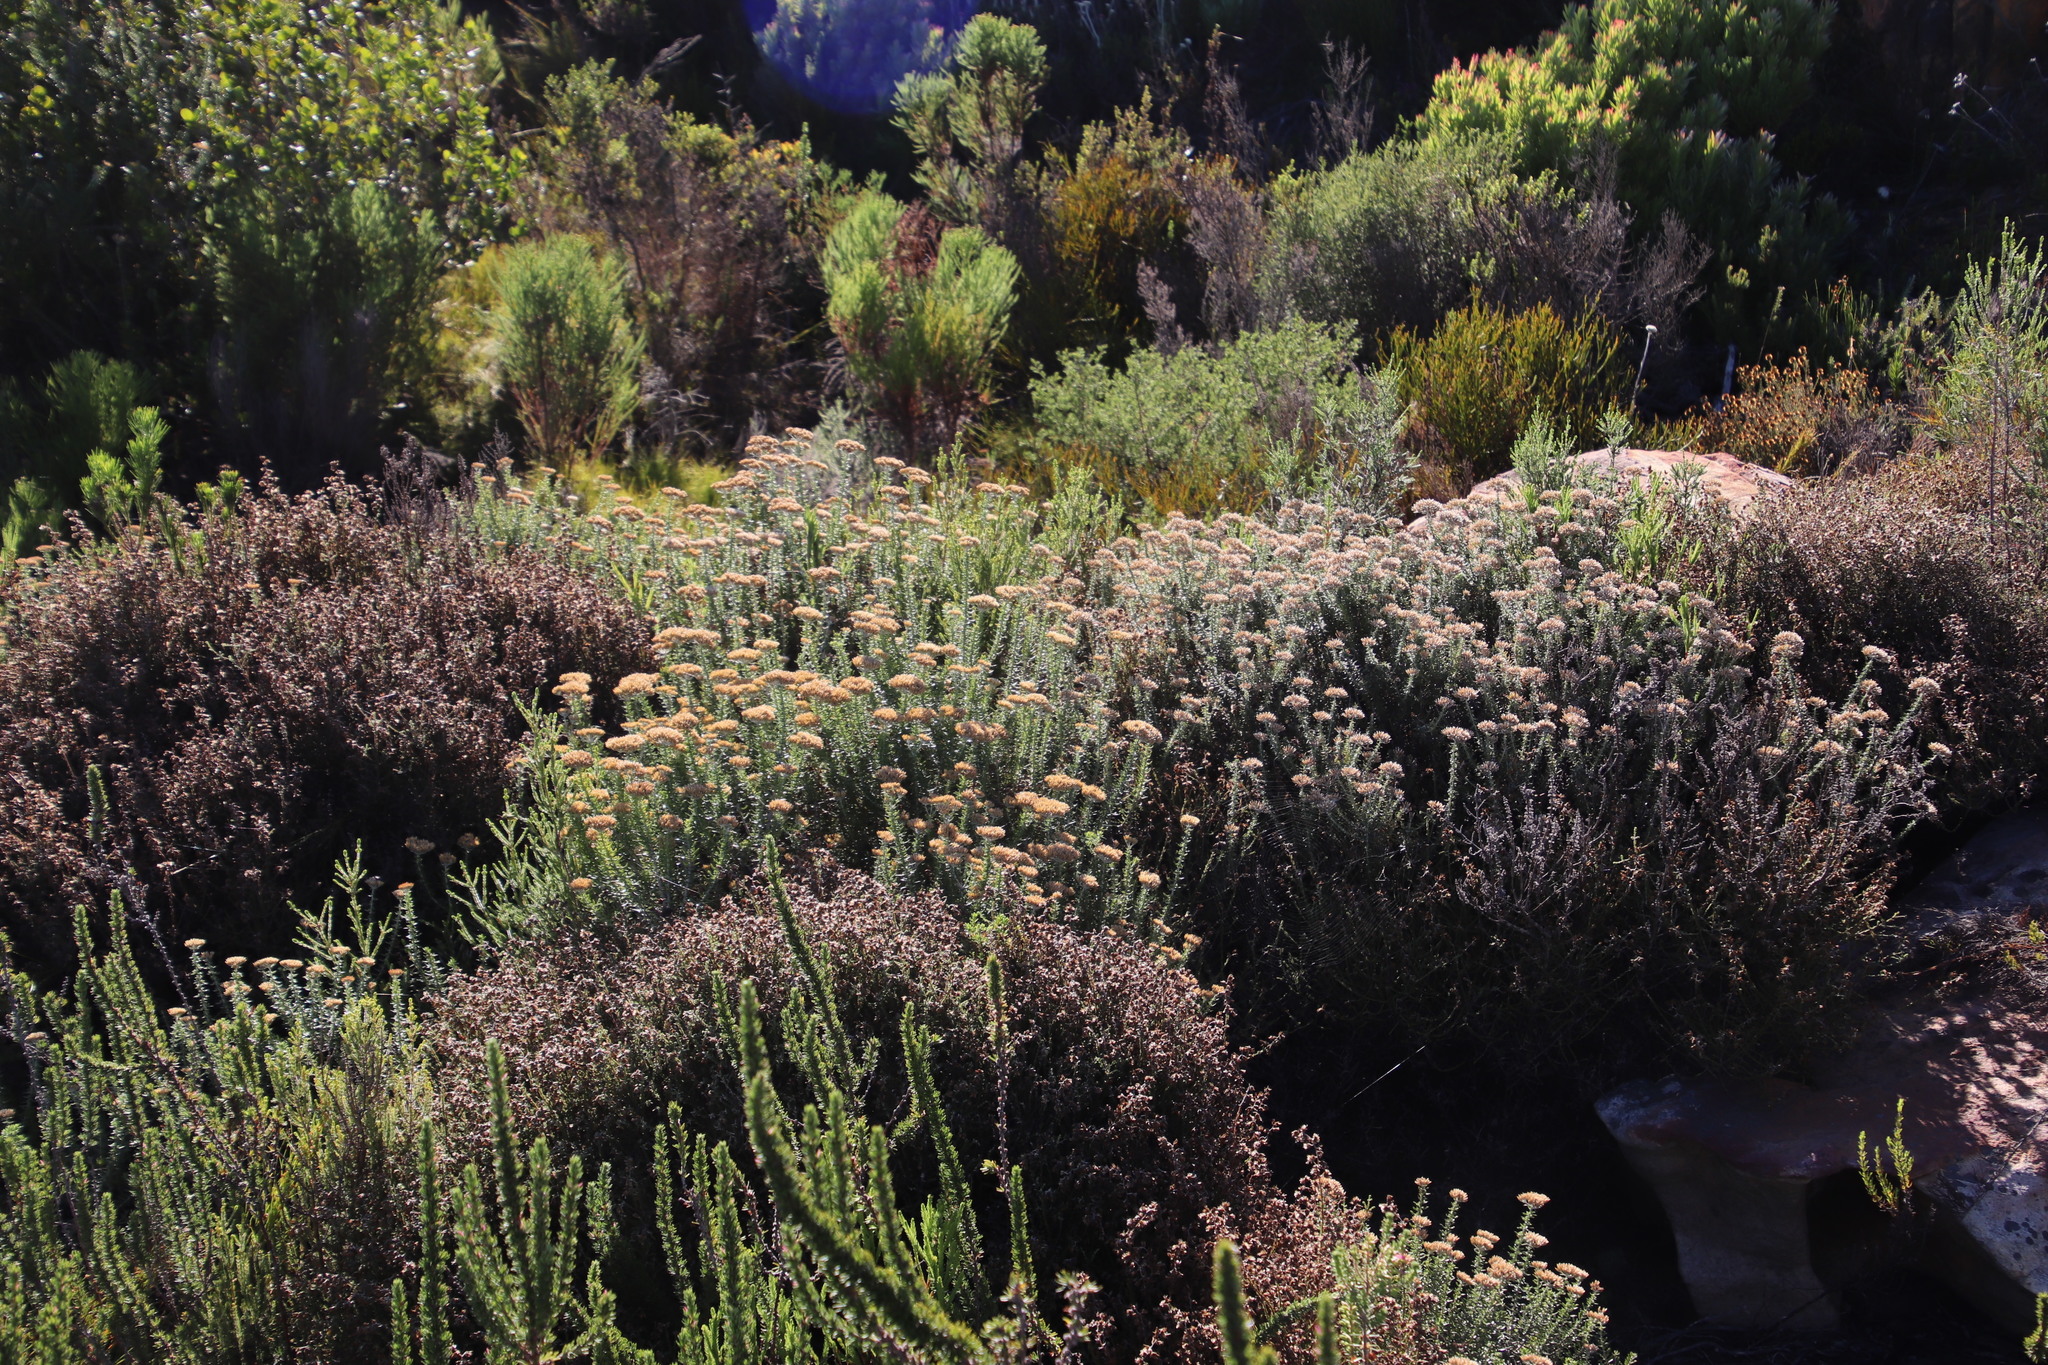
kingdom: Plantae
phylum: Tracheophyta
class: Magnoliopsida
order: Asterales
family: Asteraceae
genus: Metalasia
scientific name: Metalasia densa
